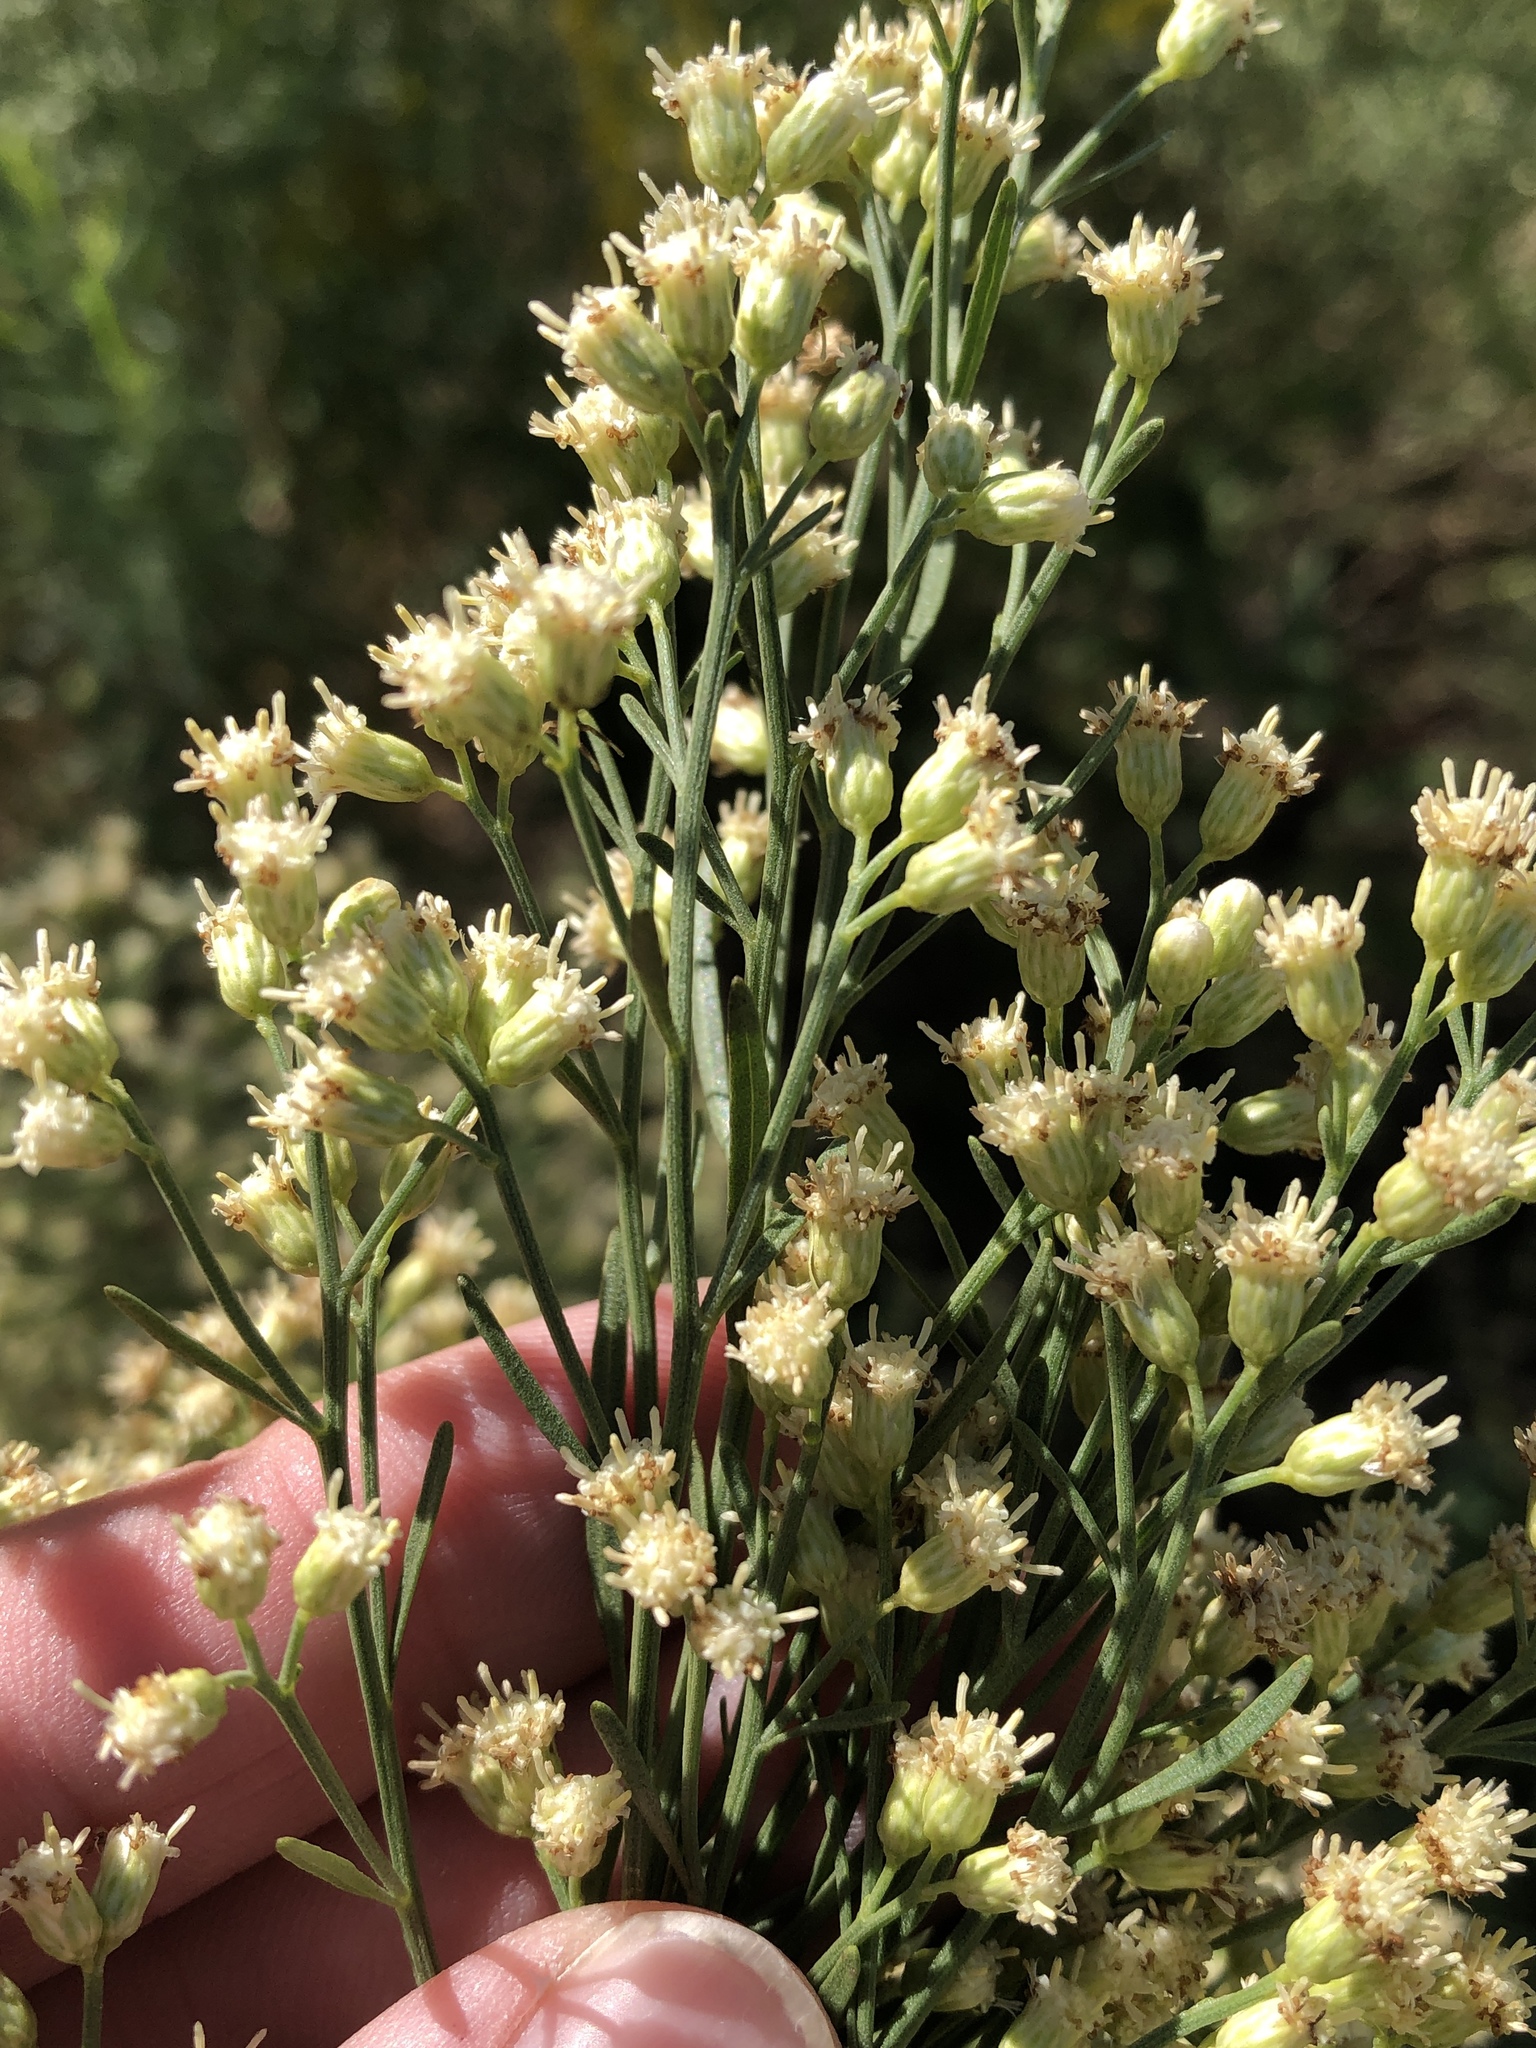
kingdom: Plantae
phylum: Tracheophyta
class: Magnoliopsida
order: Asterales
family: Asteraceae
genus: Baccharis
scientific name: Baccharis neglecta
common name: Roosevelt-weed
